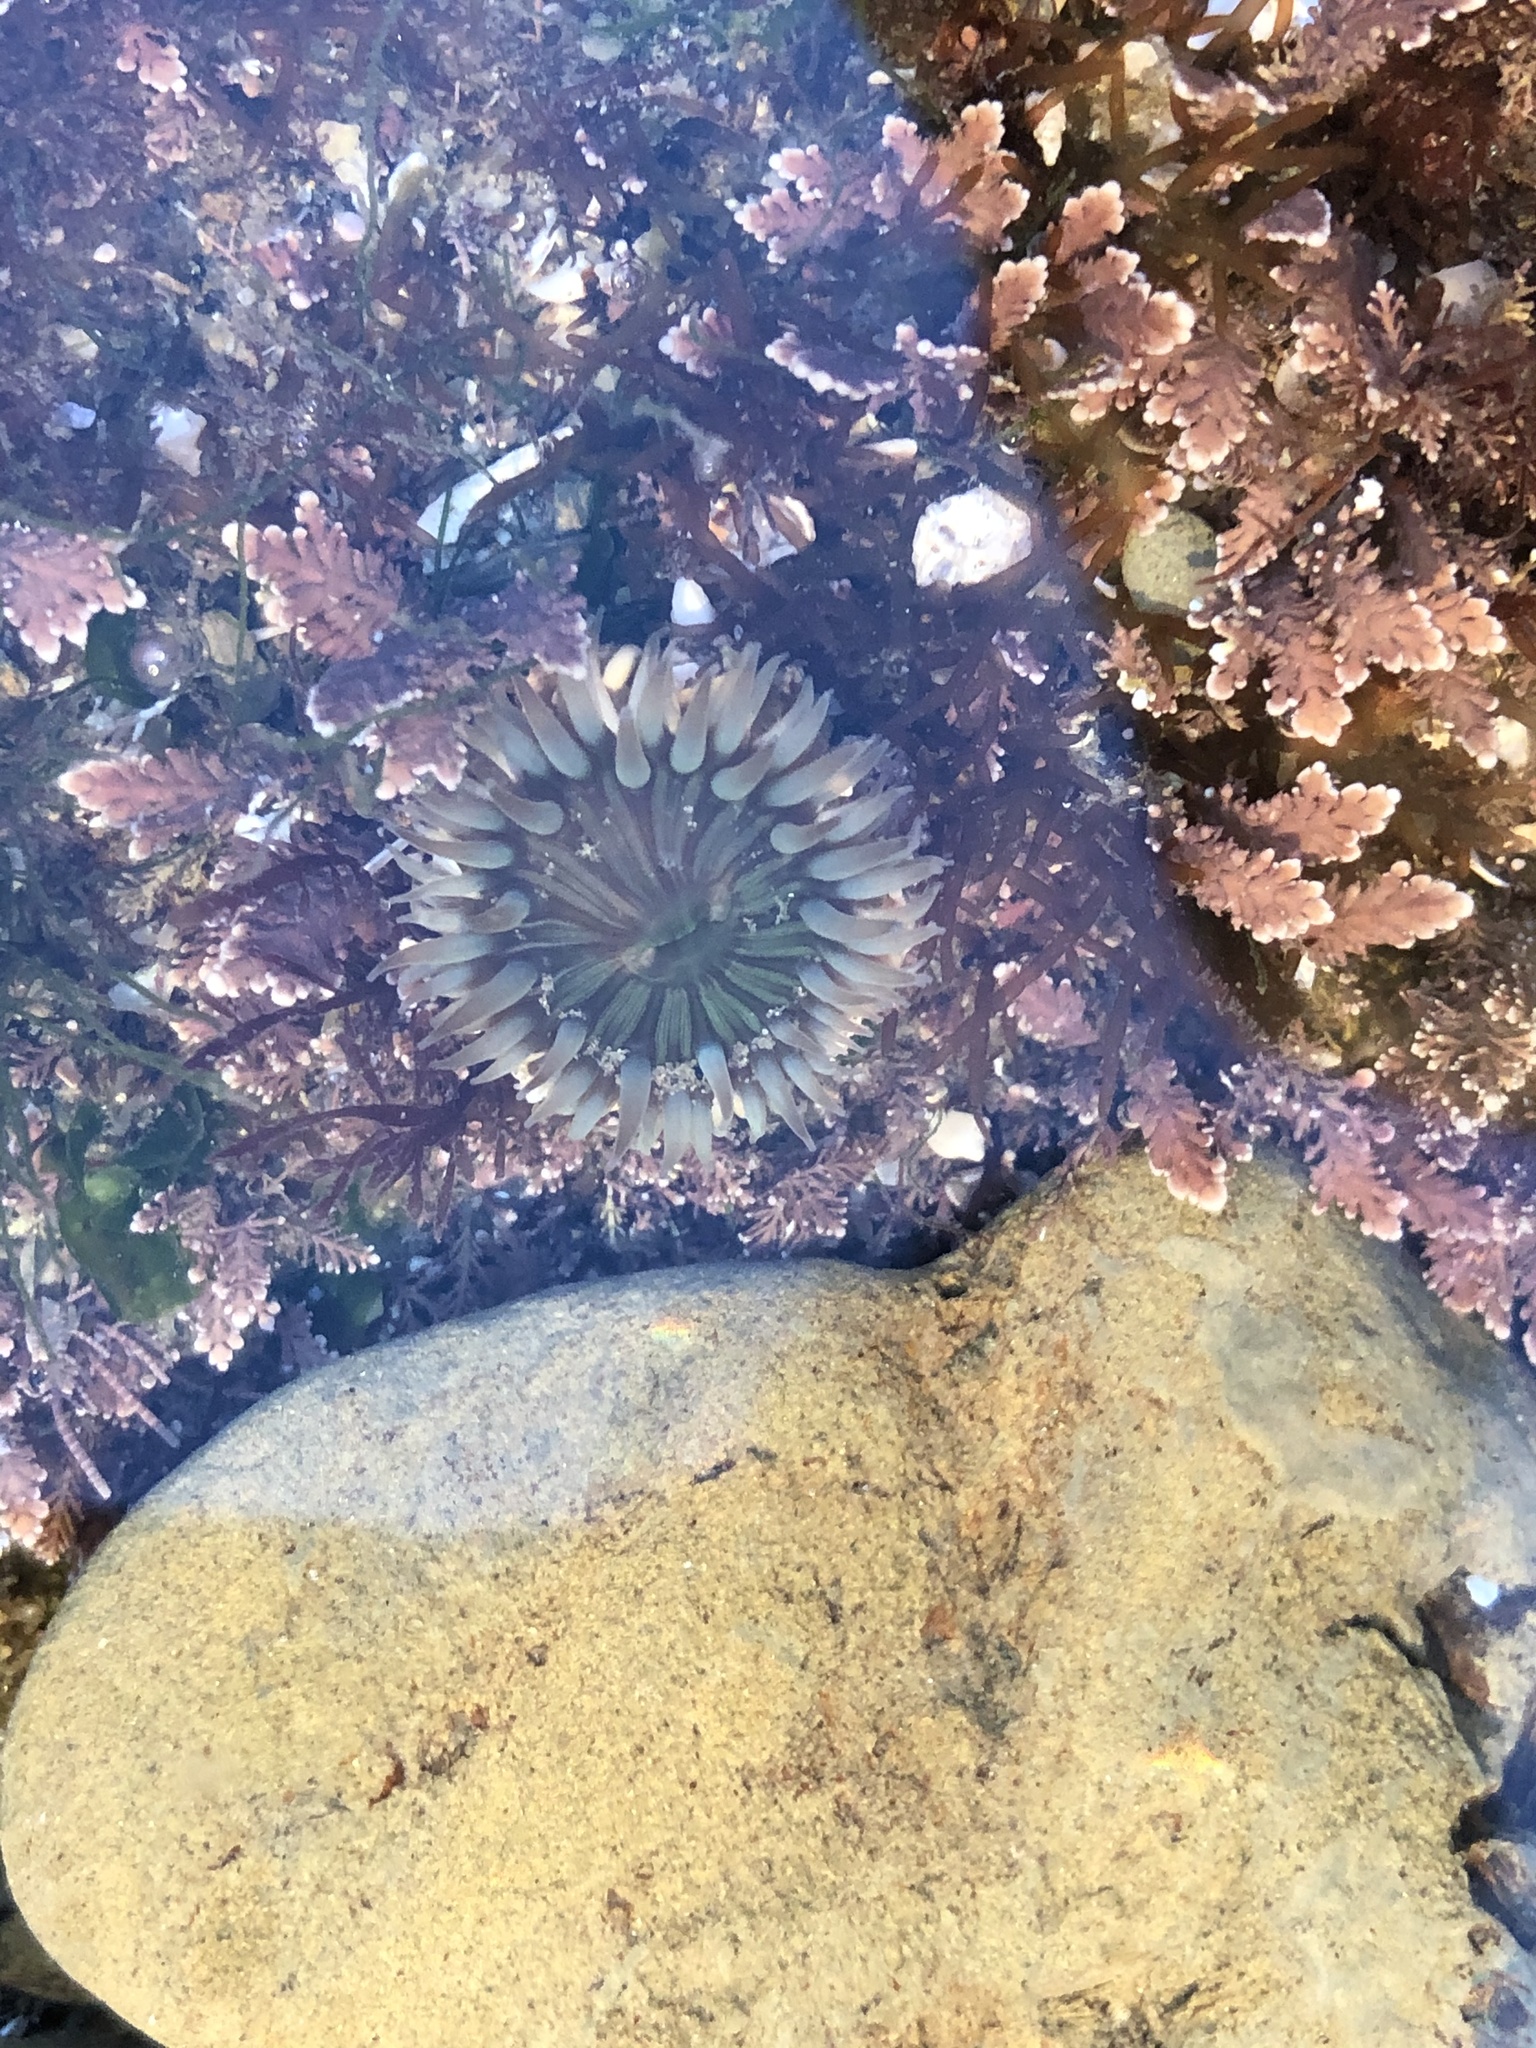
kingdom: Animalia
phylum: Cnidaria
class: Anthozoa
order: Actiniaria
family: Actiniidae
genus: Anthopleura
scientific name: Anthopleura sola
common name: Sun anemone
